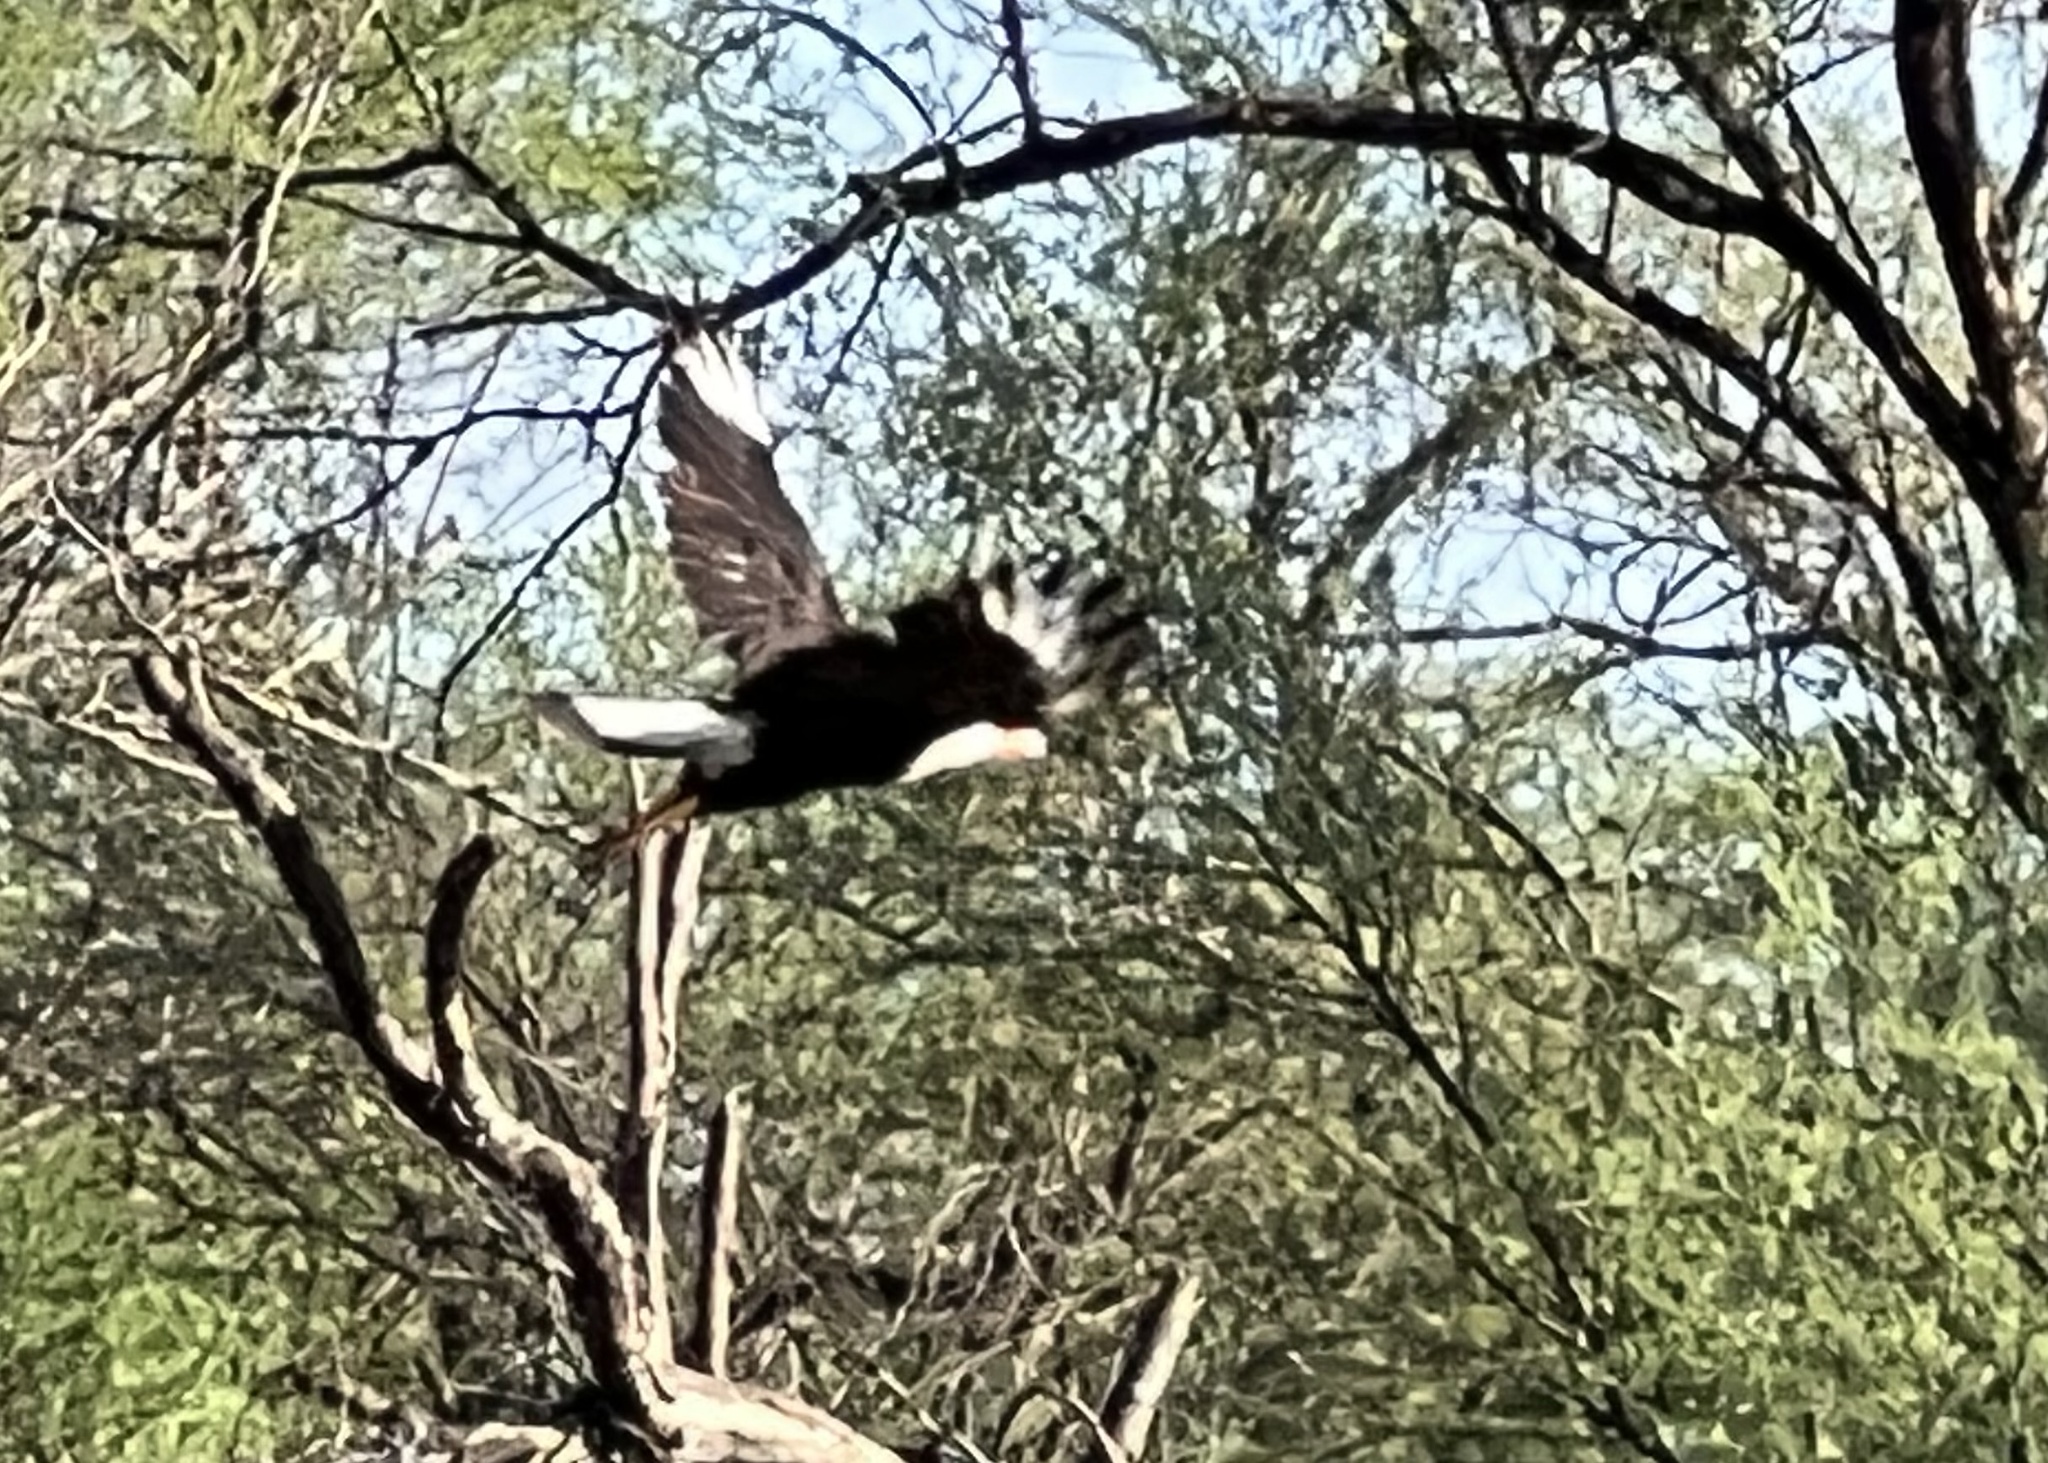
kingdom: Animalia
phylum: Chordata
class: Aves
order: Falconiformes
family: Falconidae
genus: Caracara
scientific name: Caracara plancus
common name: Southern caracara
